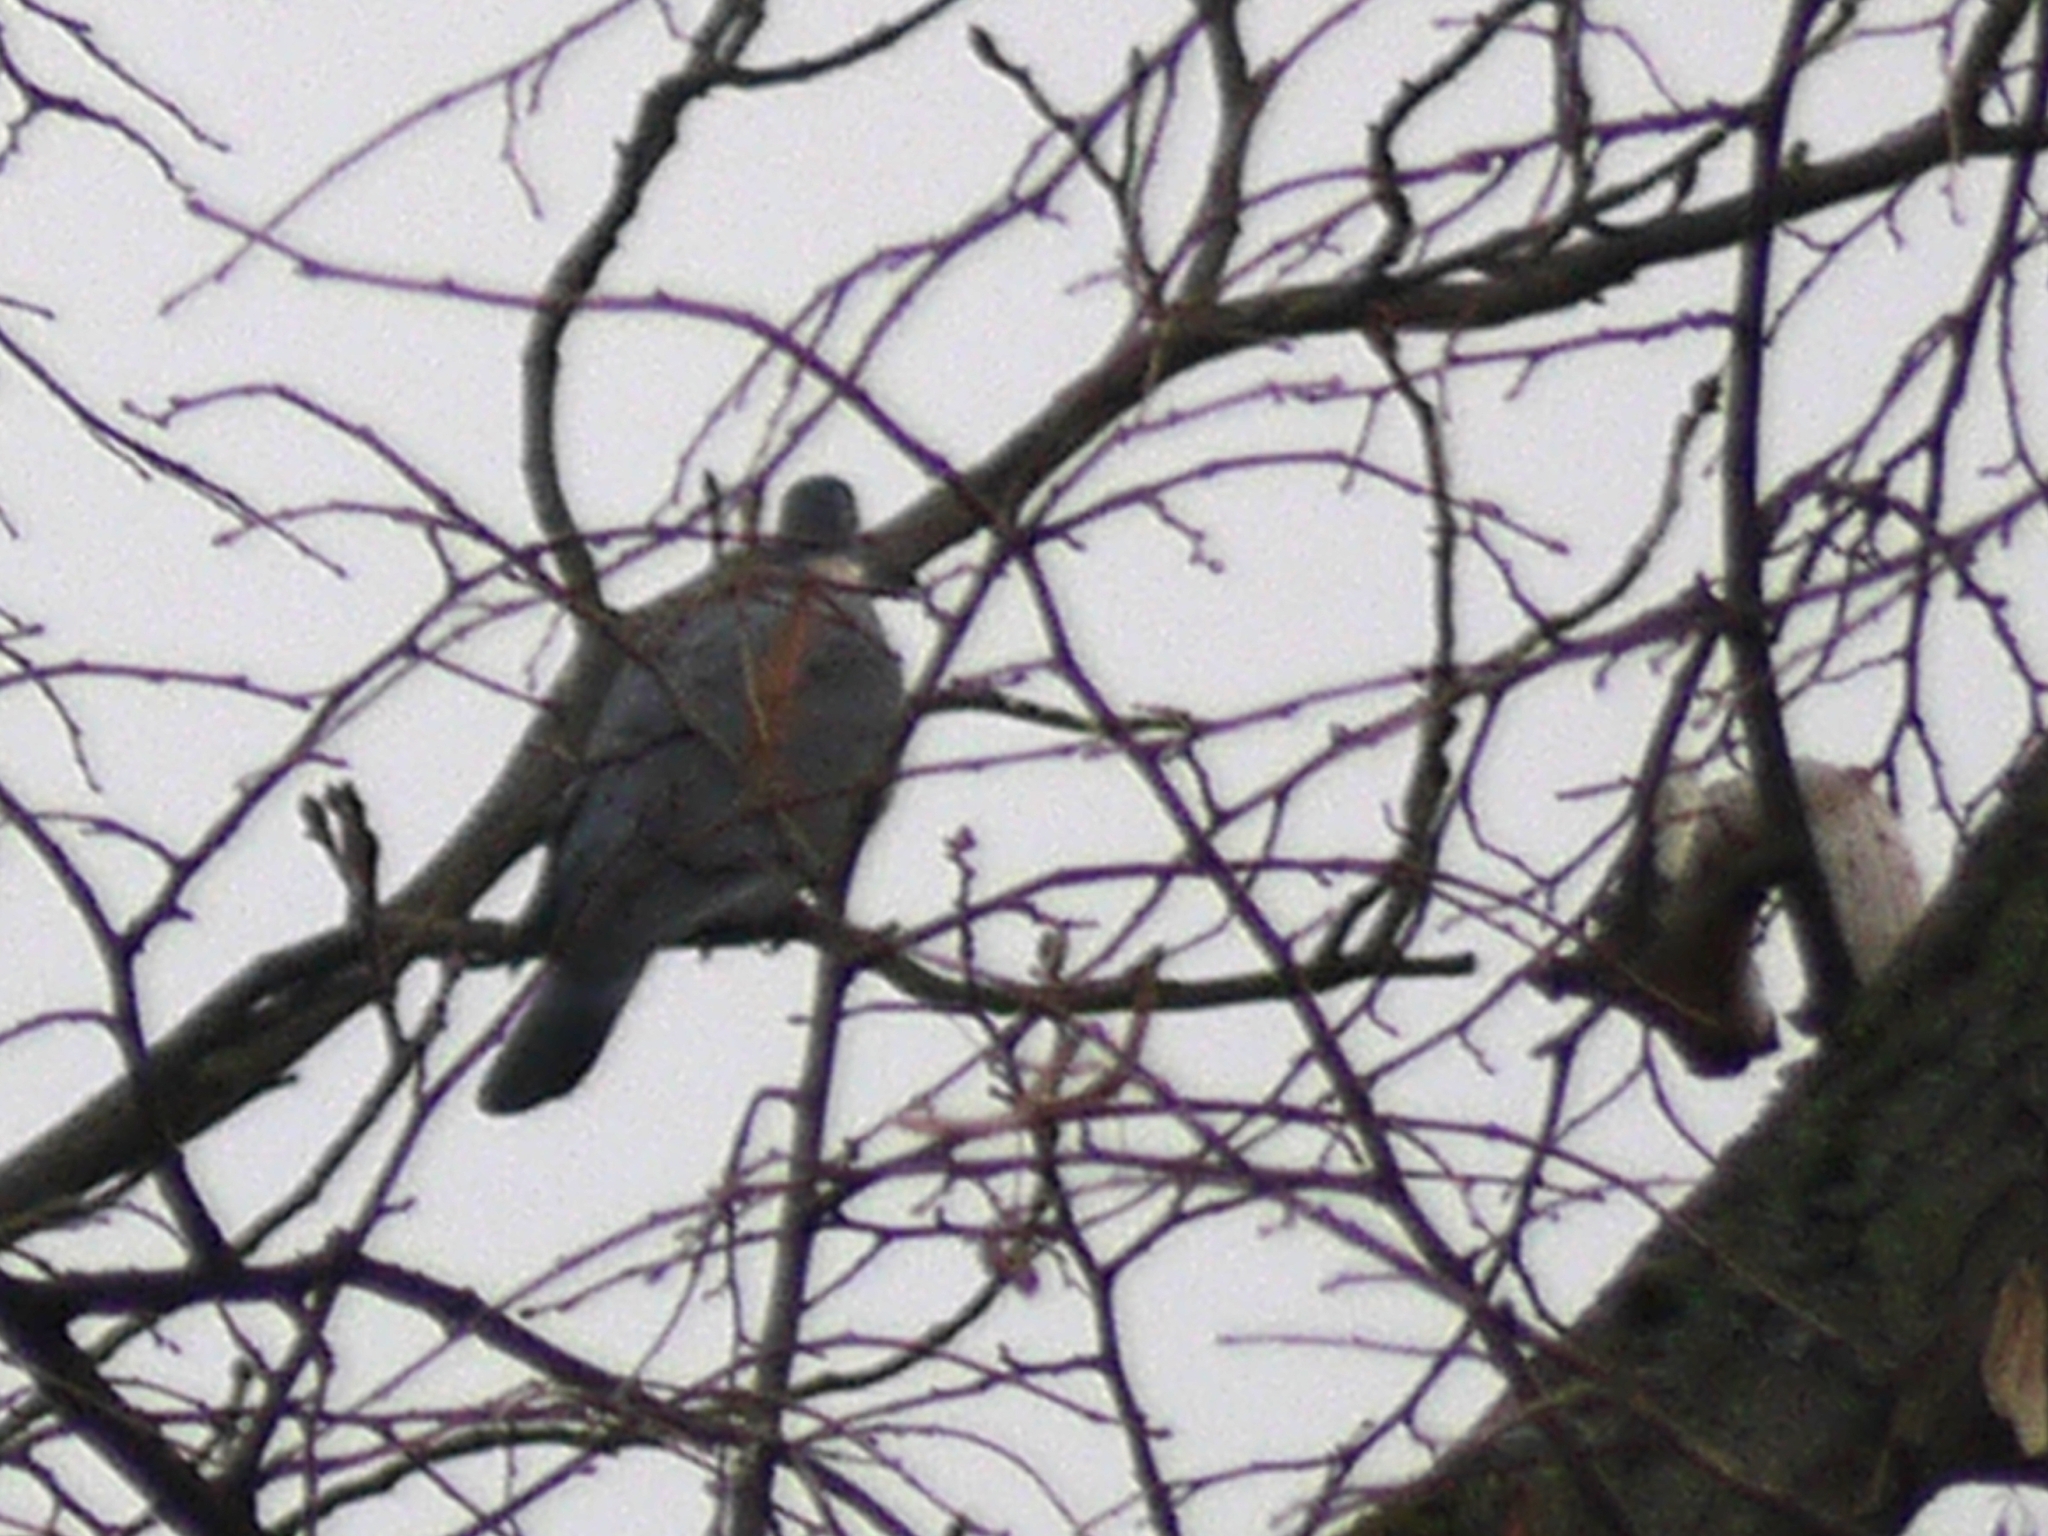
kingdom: Animalia
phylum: Chordata
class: Aves
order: Columbiformes
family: Columbidae
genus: Columba
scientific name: Columba palumbus
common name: Common wood pigeon
